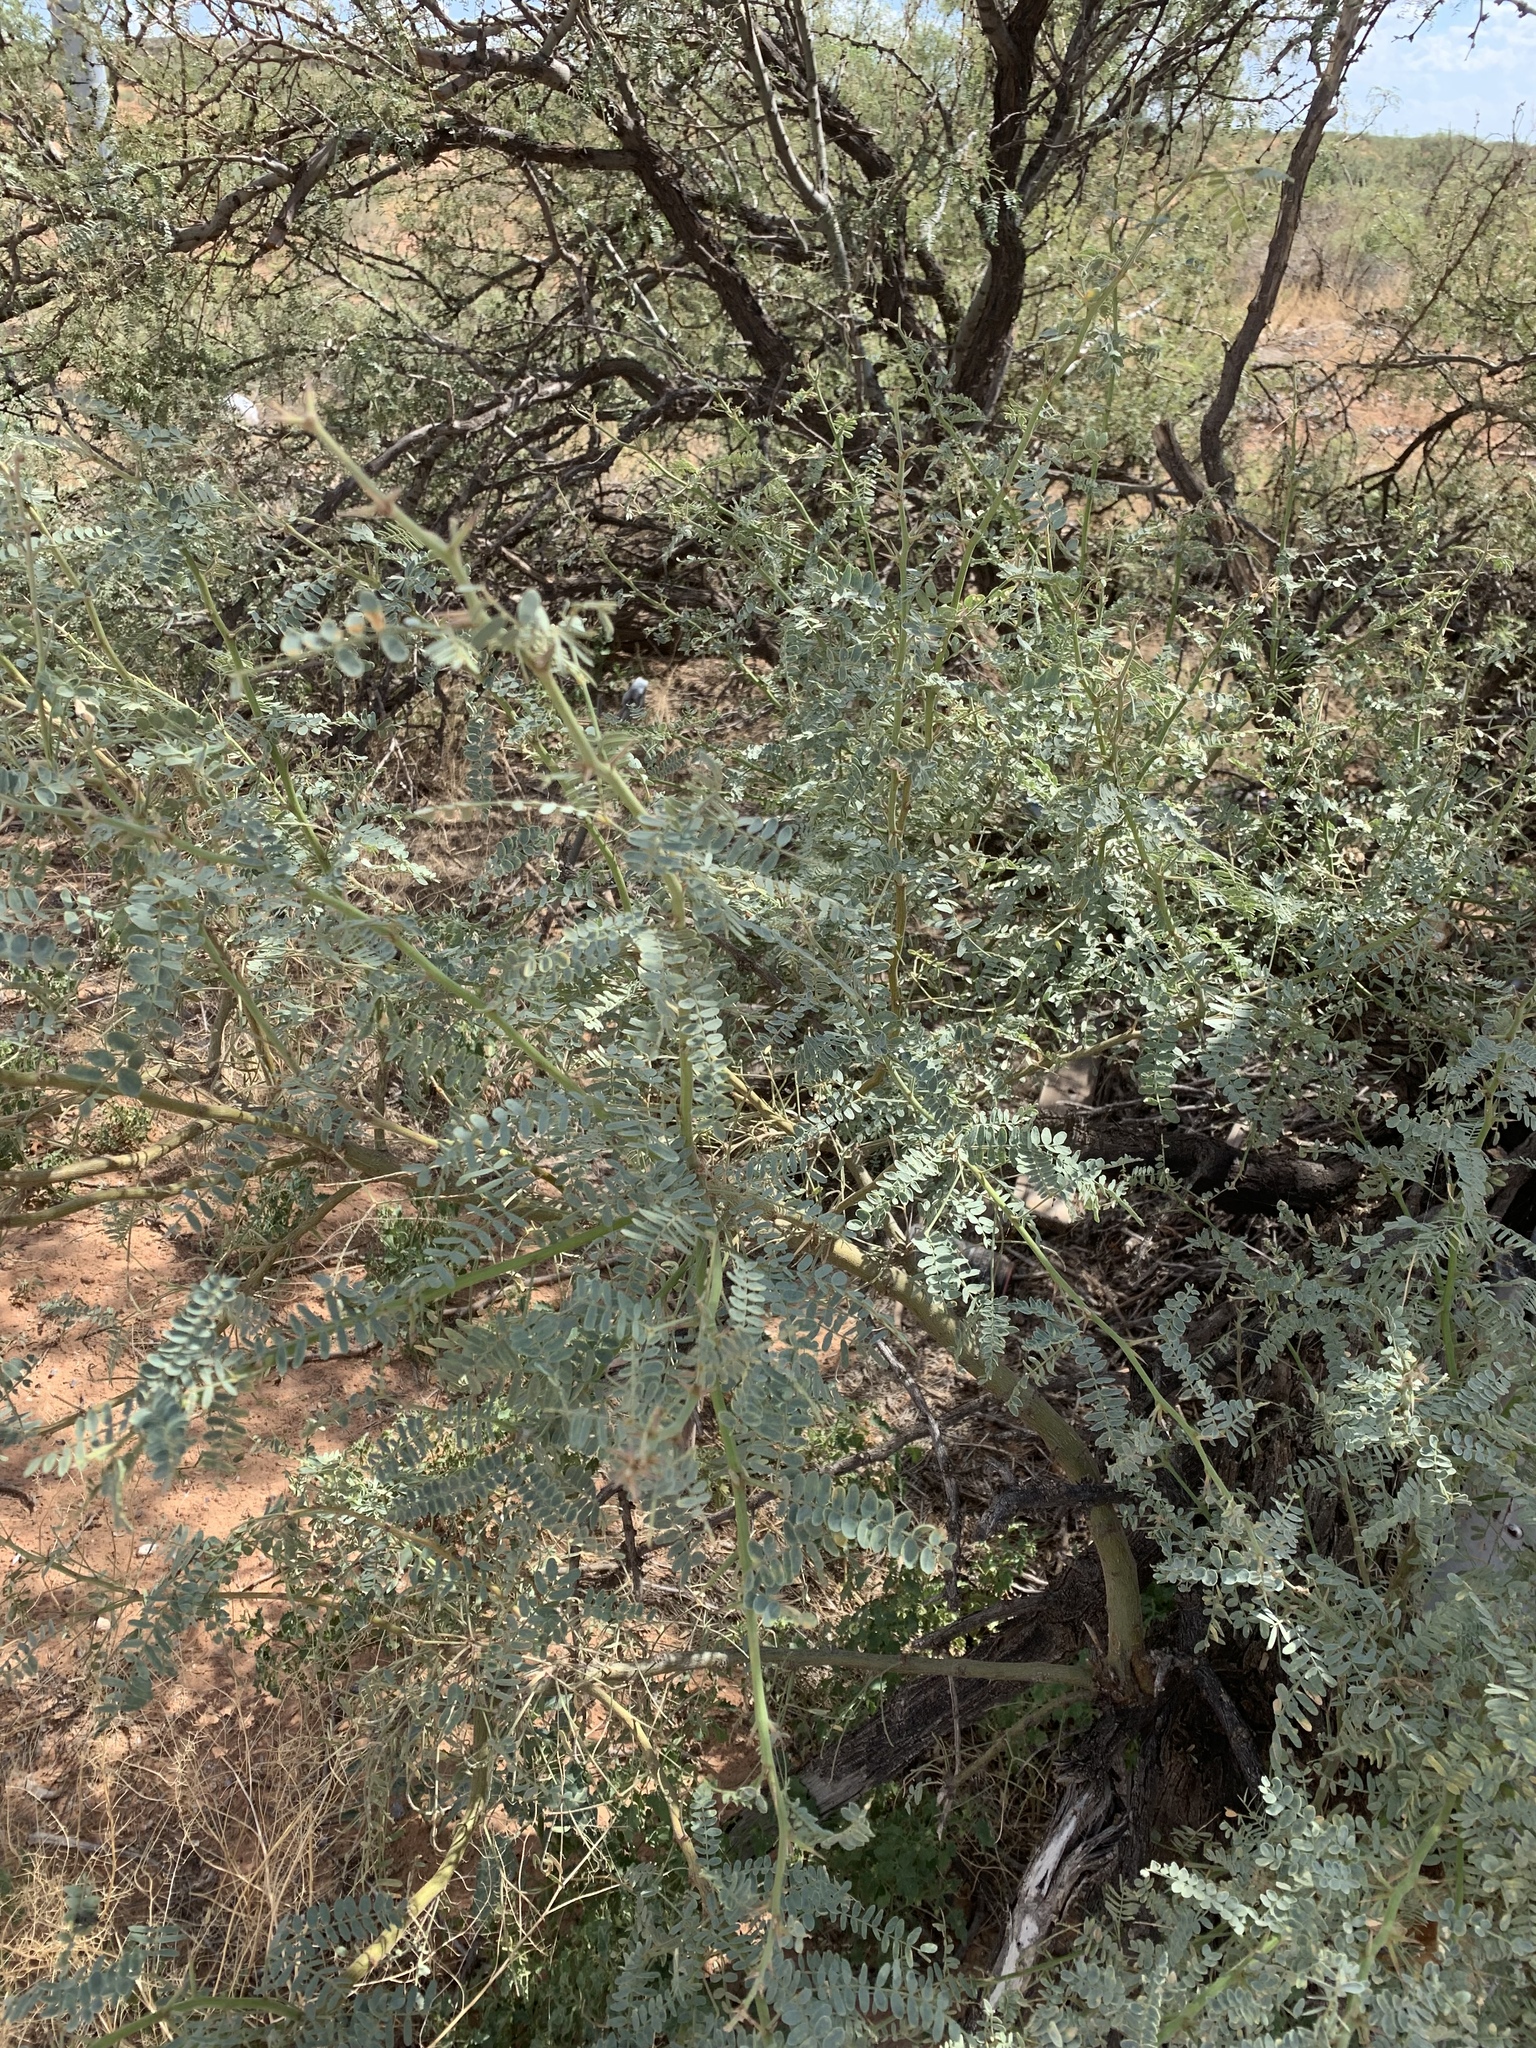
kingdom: Plantae
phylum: Tracheophyta
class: Magnoliopsida
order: Fabales
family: Fabaceae
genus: Prosopis
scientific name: Prosopis glandulosa
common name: Honey mesquite
